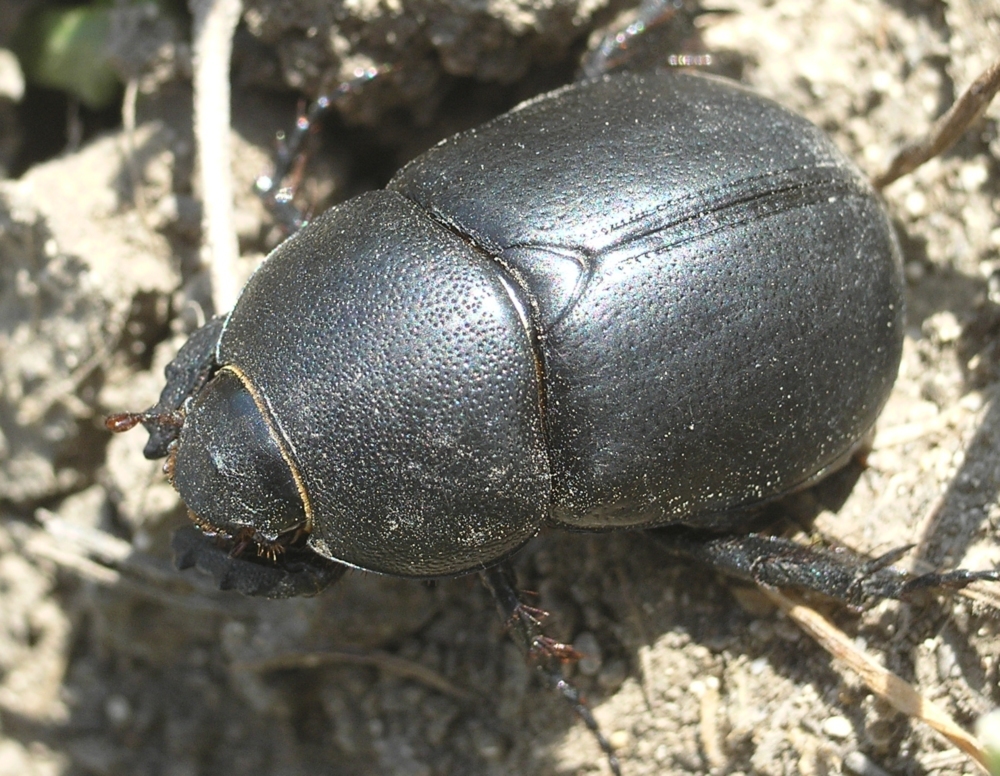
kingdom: Animalia
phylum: Arthropoda
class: Insecta
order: Coleoptera
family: Scarabaeidae
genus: Pentodon
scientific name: Pentodon idiota
